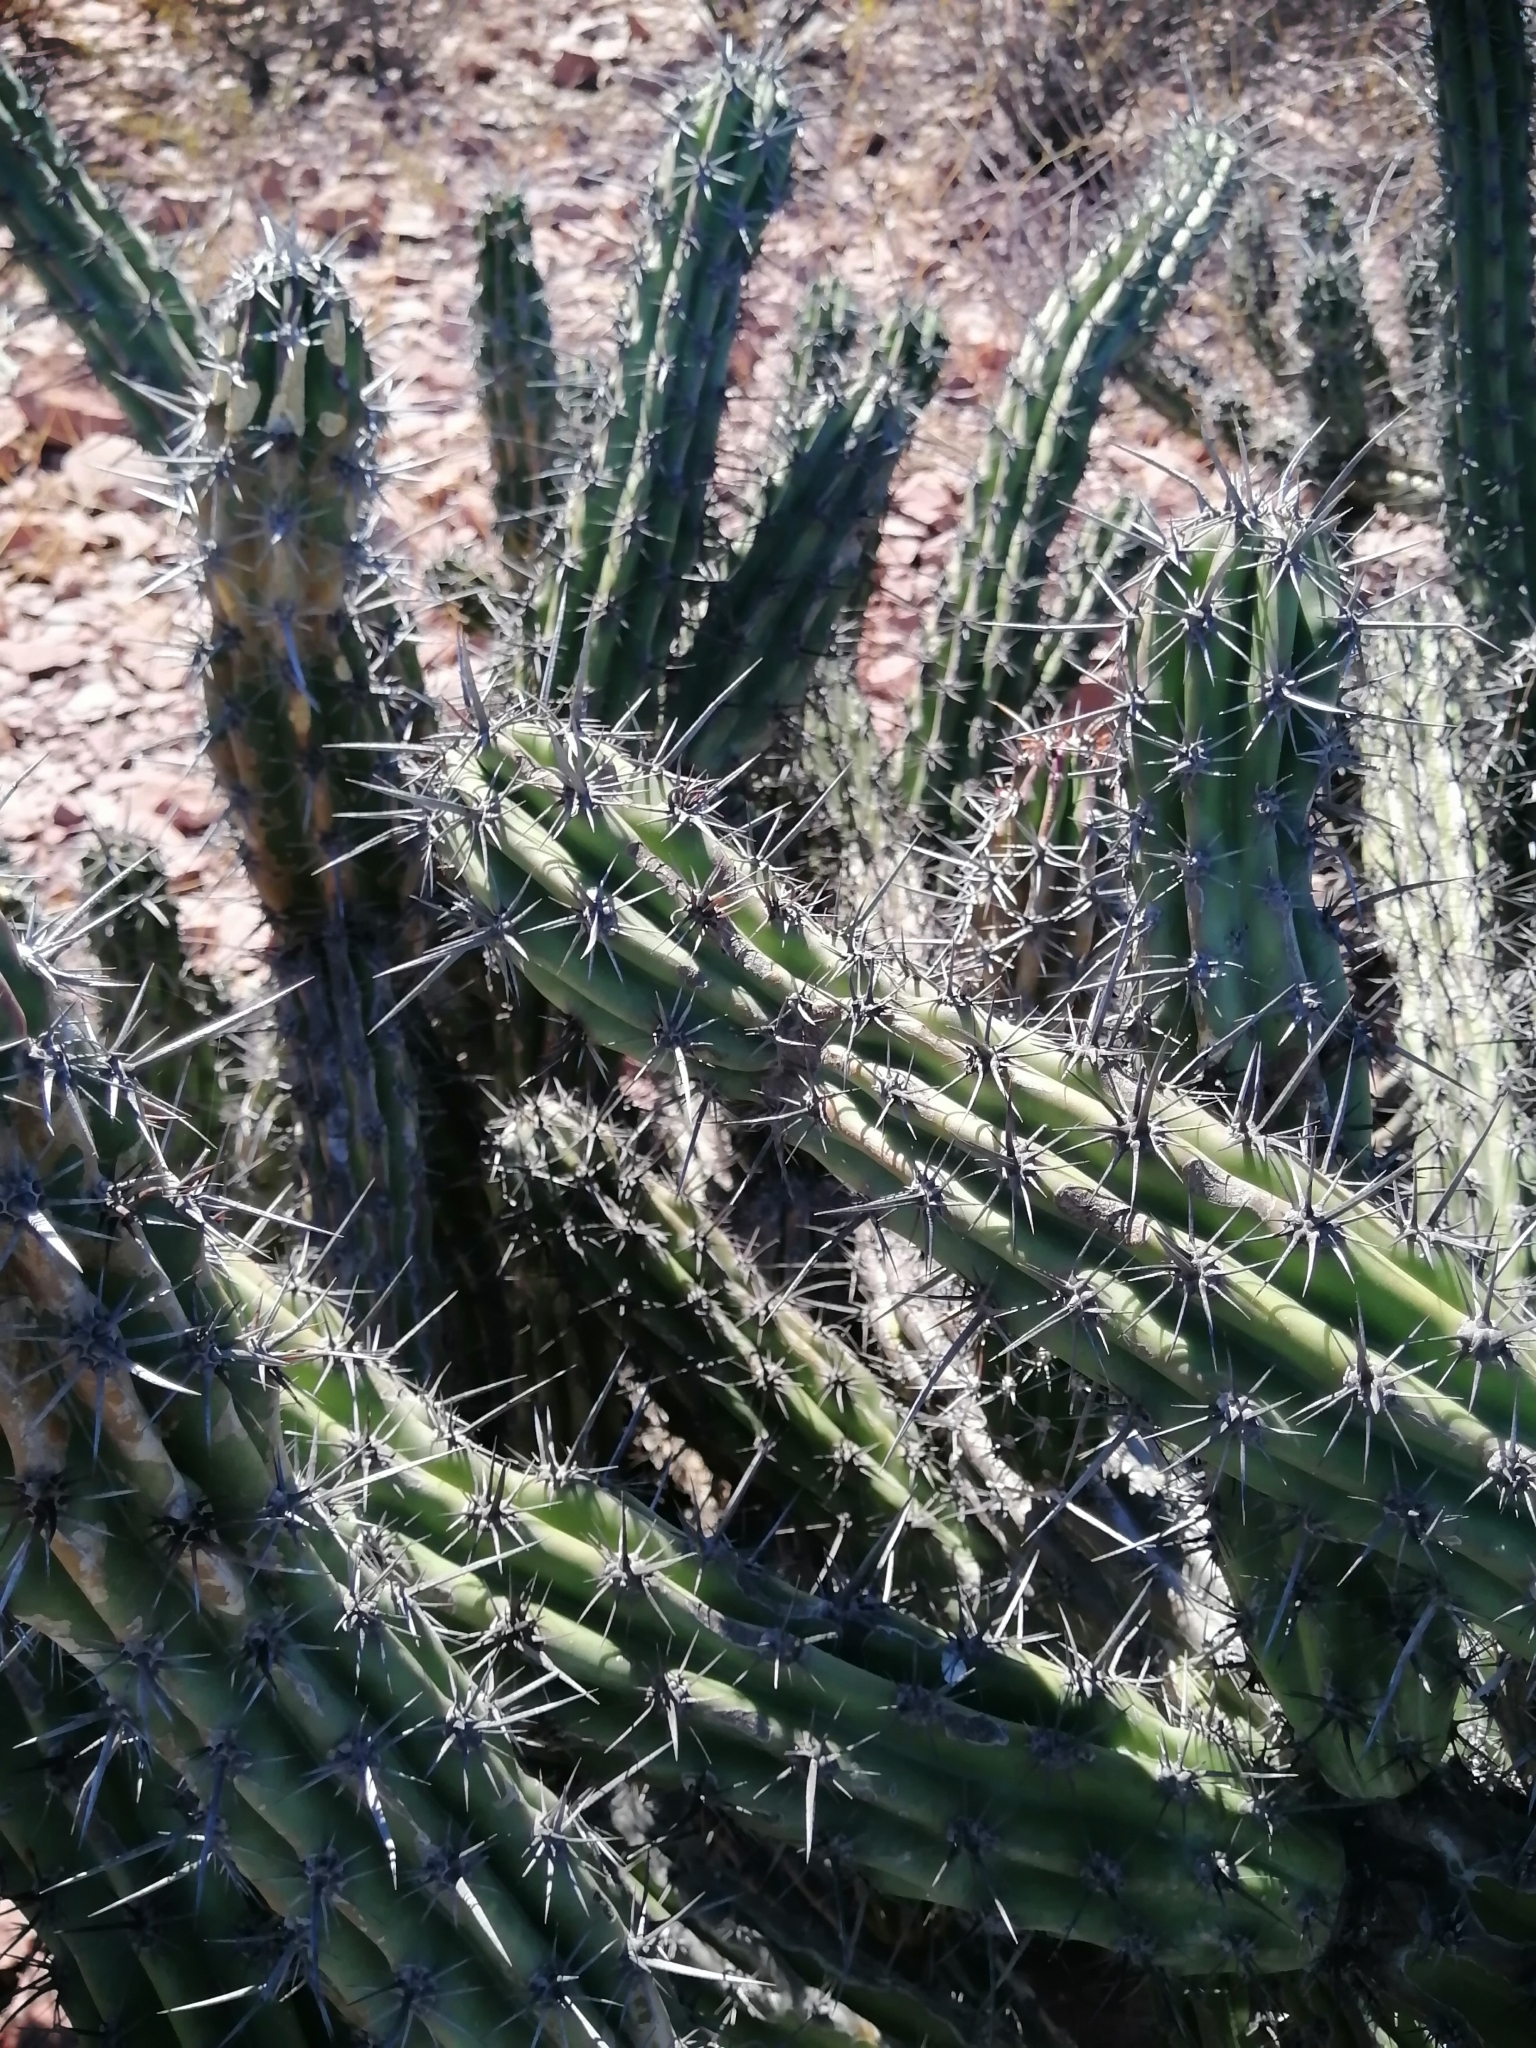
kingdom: Plantae
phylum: Tracheophyta
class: Magnoliopsida
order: Caryophyllales
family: Cactaceae
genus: Stenocereus
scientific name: Stenocereus gummosus
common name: Dagger cactus
